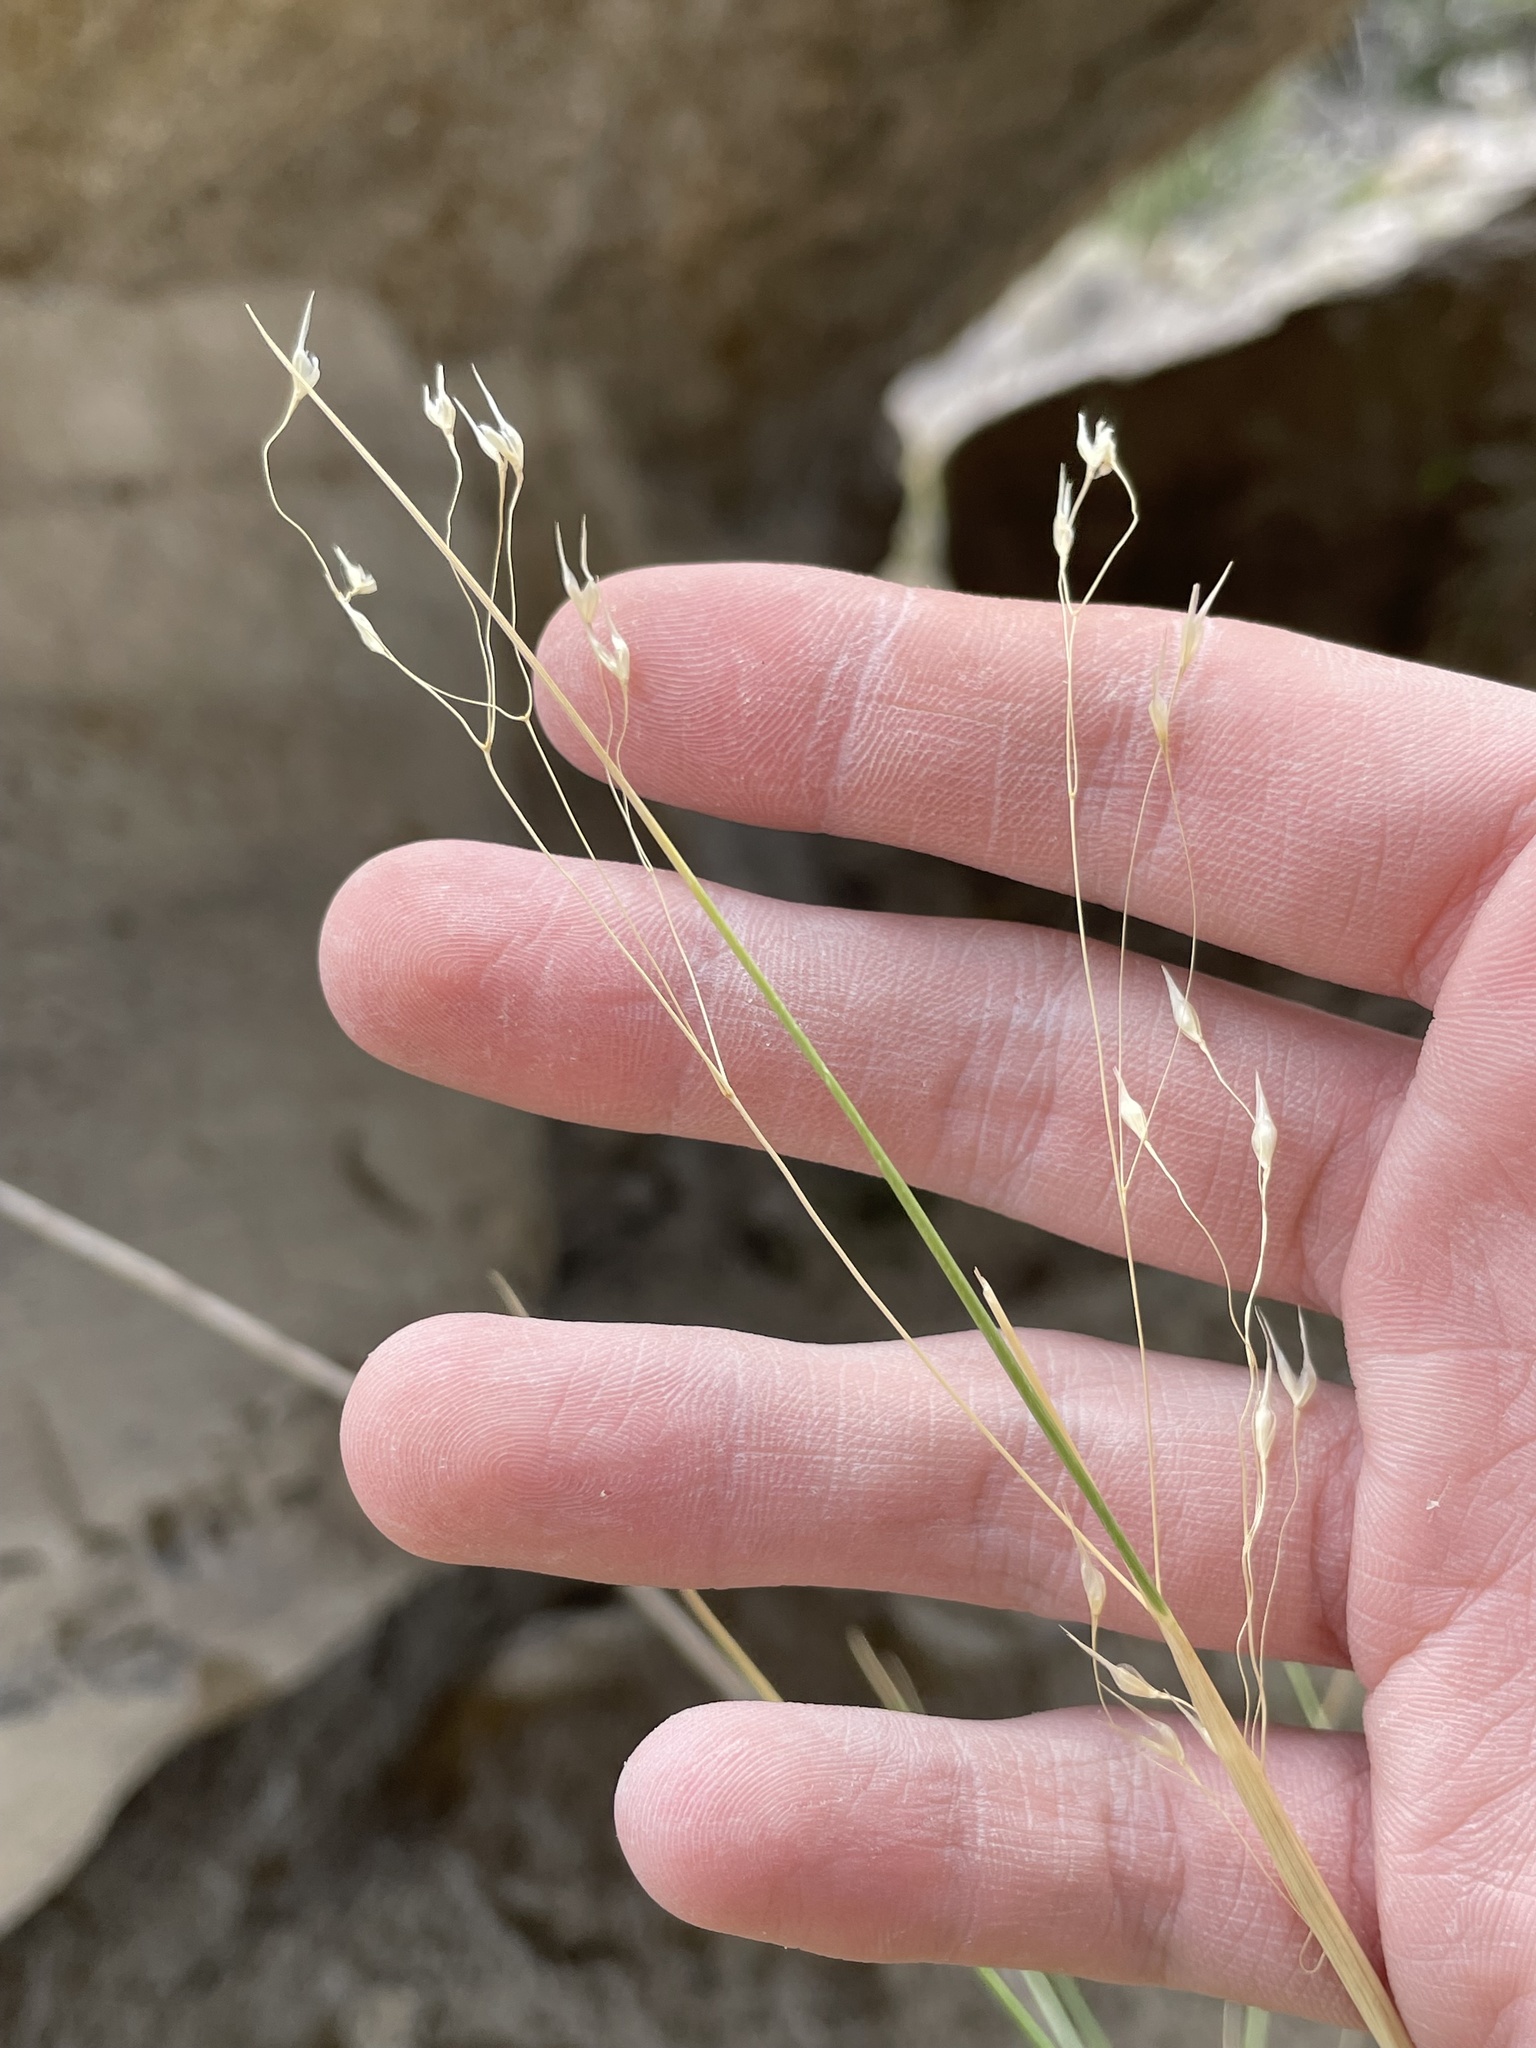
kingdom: Plantae
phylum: Tracheophyta
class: Liliopsida
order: Poales
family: Poaceae
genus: Eriocoma
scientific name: Eriocoma hymenoides
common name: Indian mountain ricegrass
